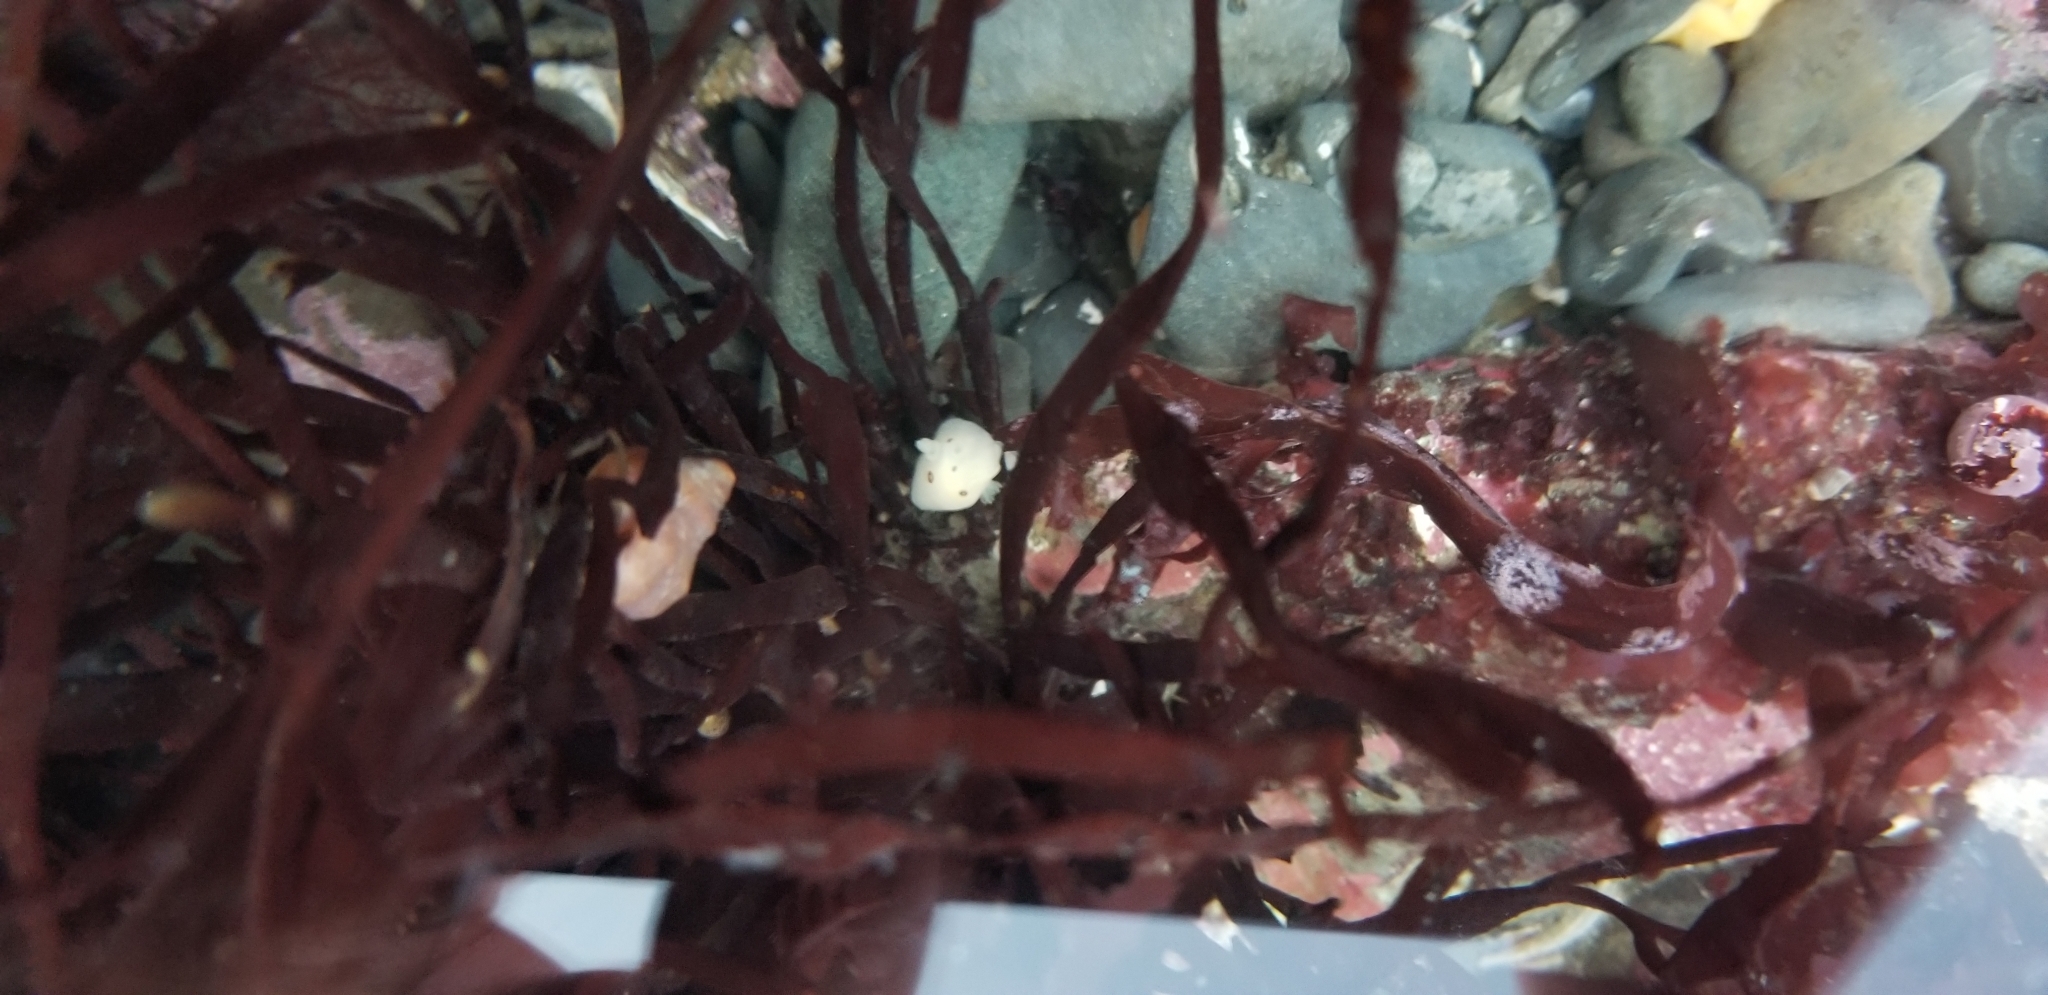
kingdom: Animalia
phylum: Mollusca
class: Gastropoda
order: Nudibranchia
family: Discodorididae
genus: Diaulula
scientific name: Diaulula sandiegensis
